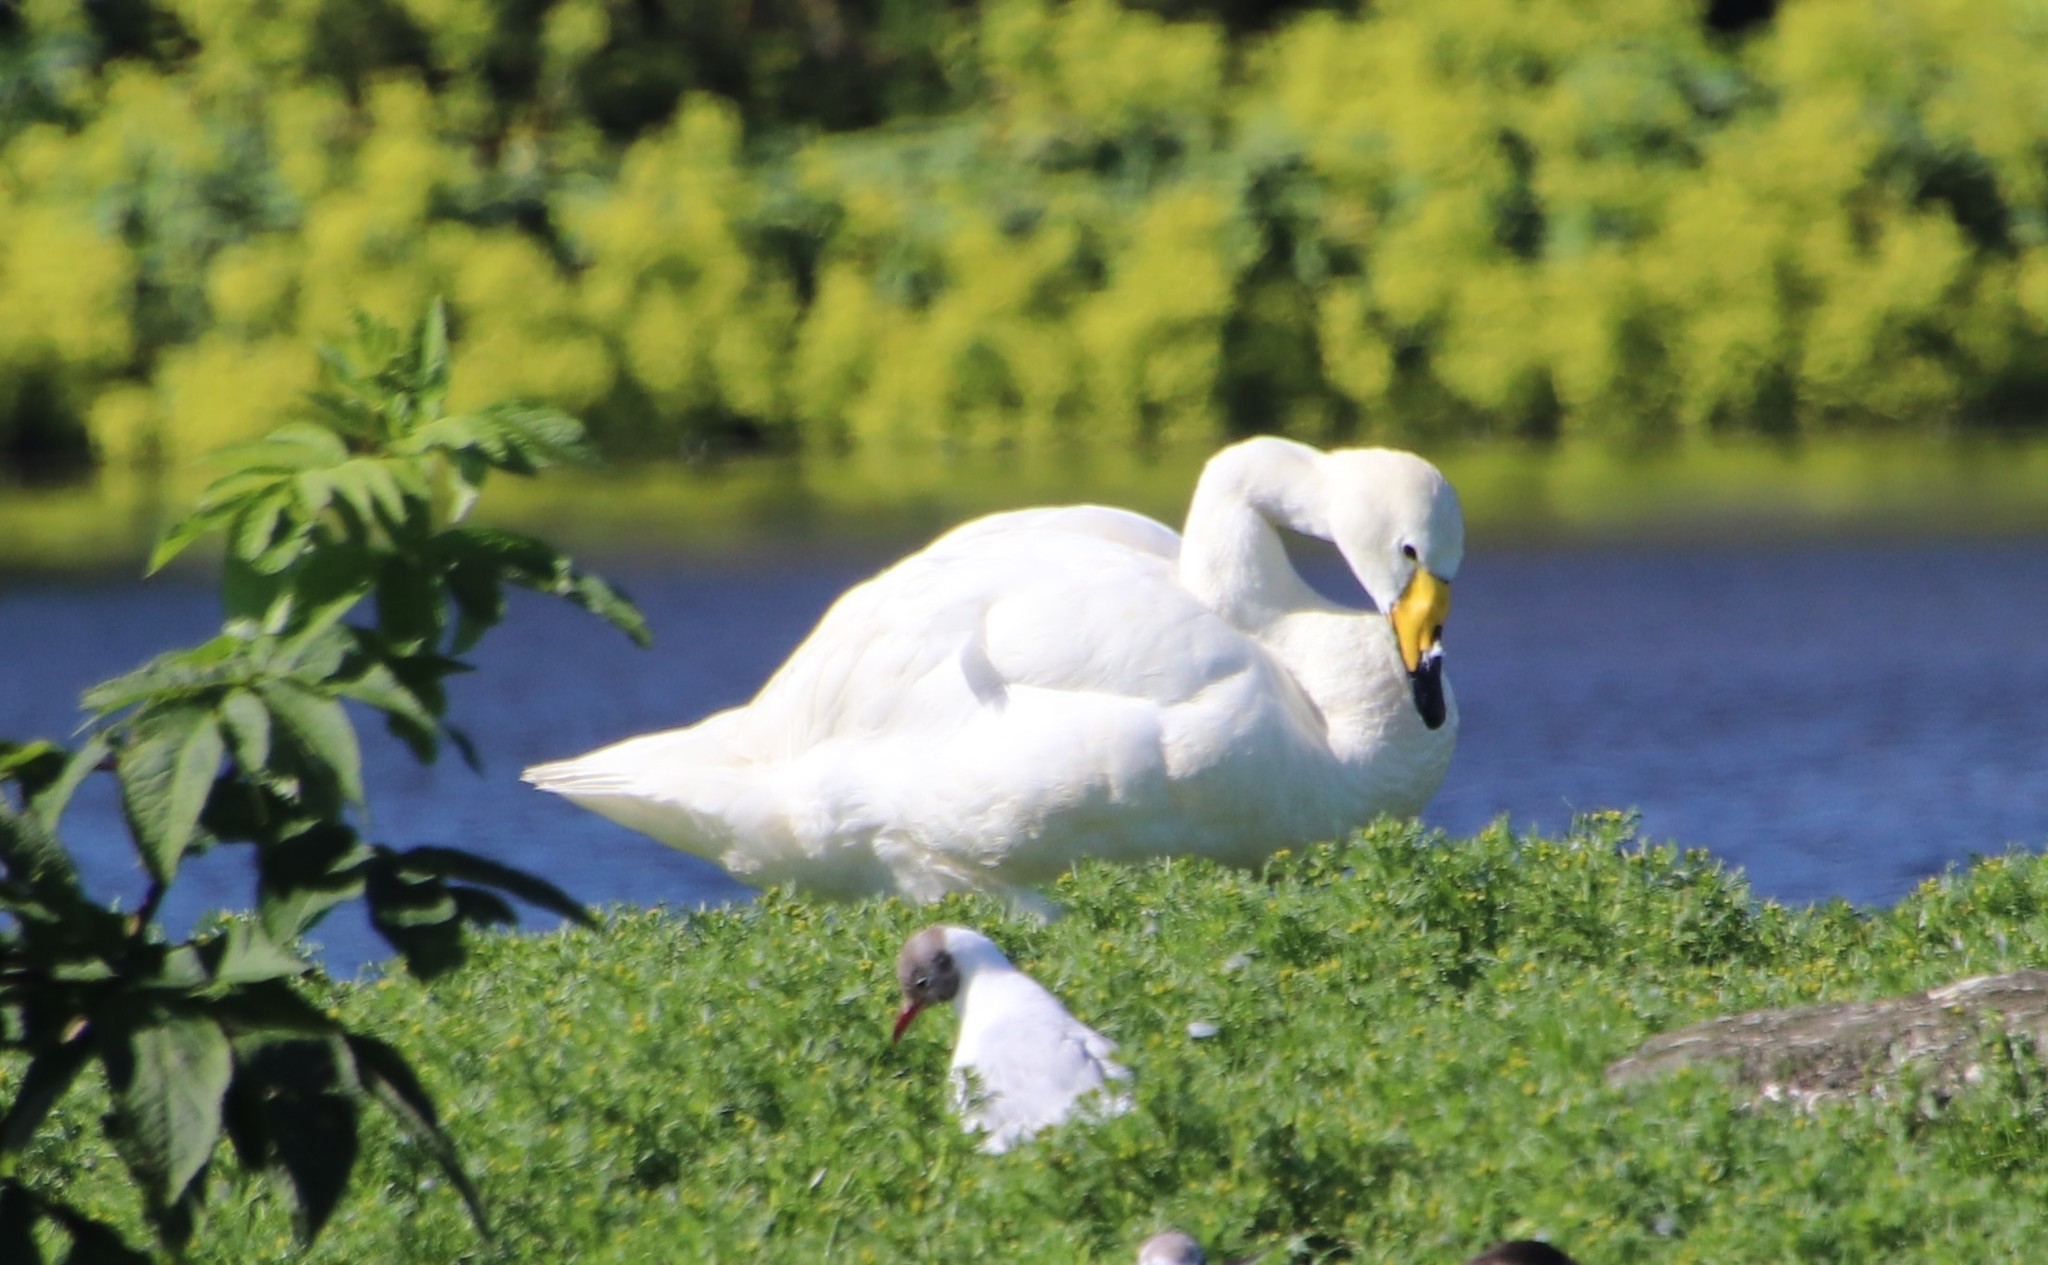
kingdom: Animalia
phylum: Chordata
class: Aves
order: Anseriformes
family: Anatidae
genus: Cygnus
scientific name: Cygnus cygnus
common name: Whooper swan
